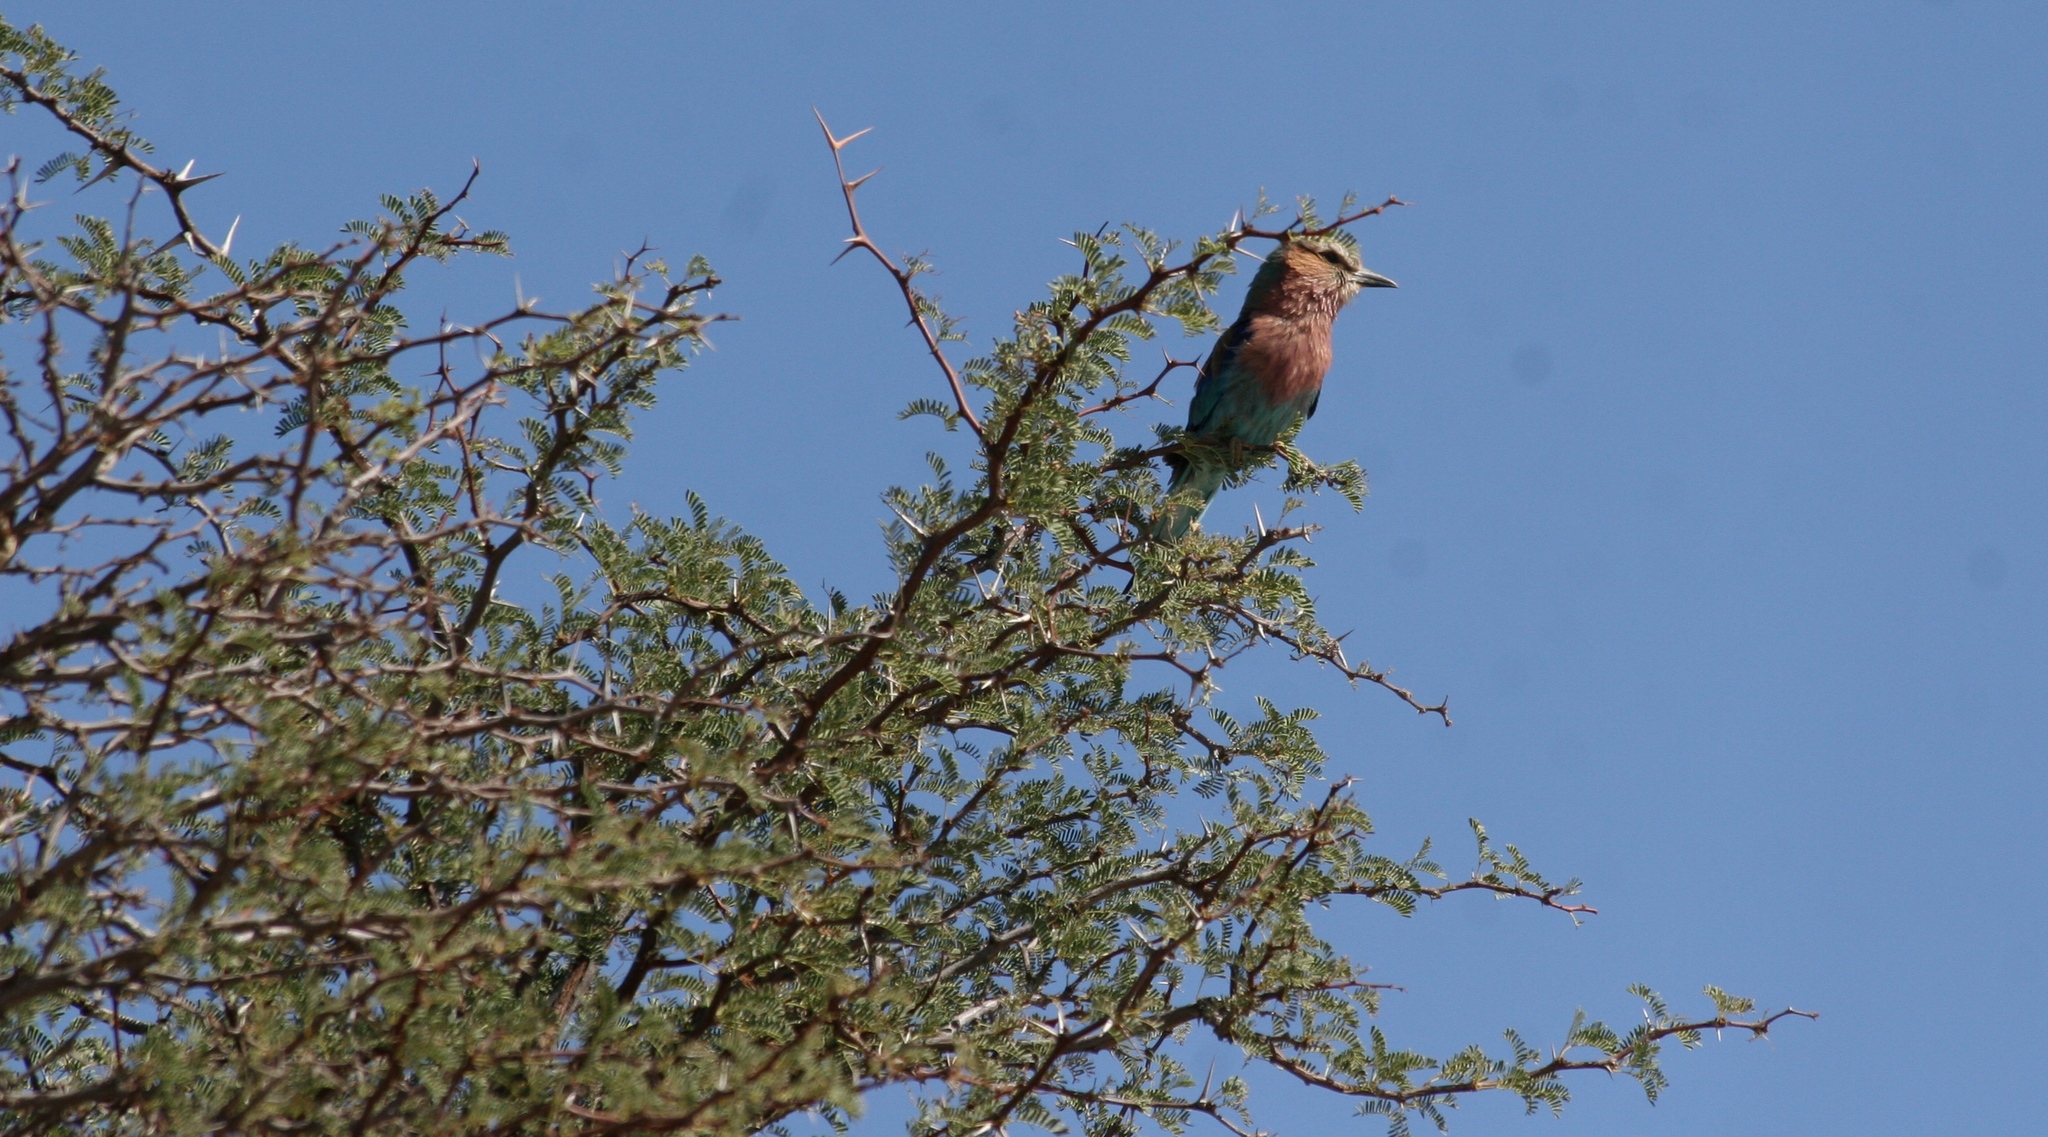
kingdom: Animalia
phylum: Chordata
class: Aves
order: Coraciiformes
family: Coraciidae
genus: Coracias
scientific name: Coracias caudatus
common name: Lilac-breasted roller
